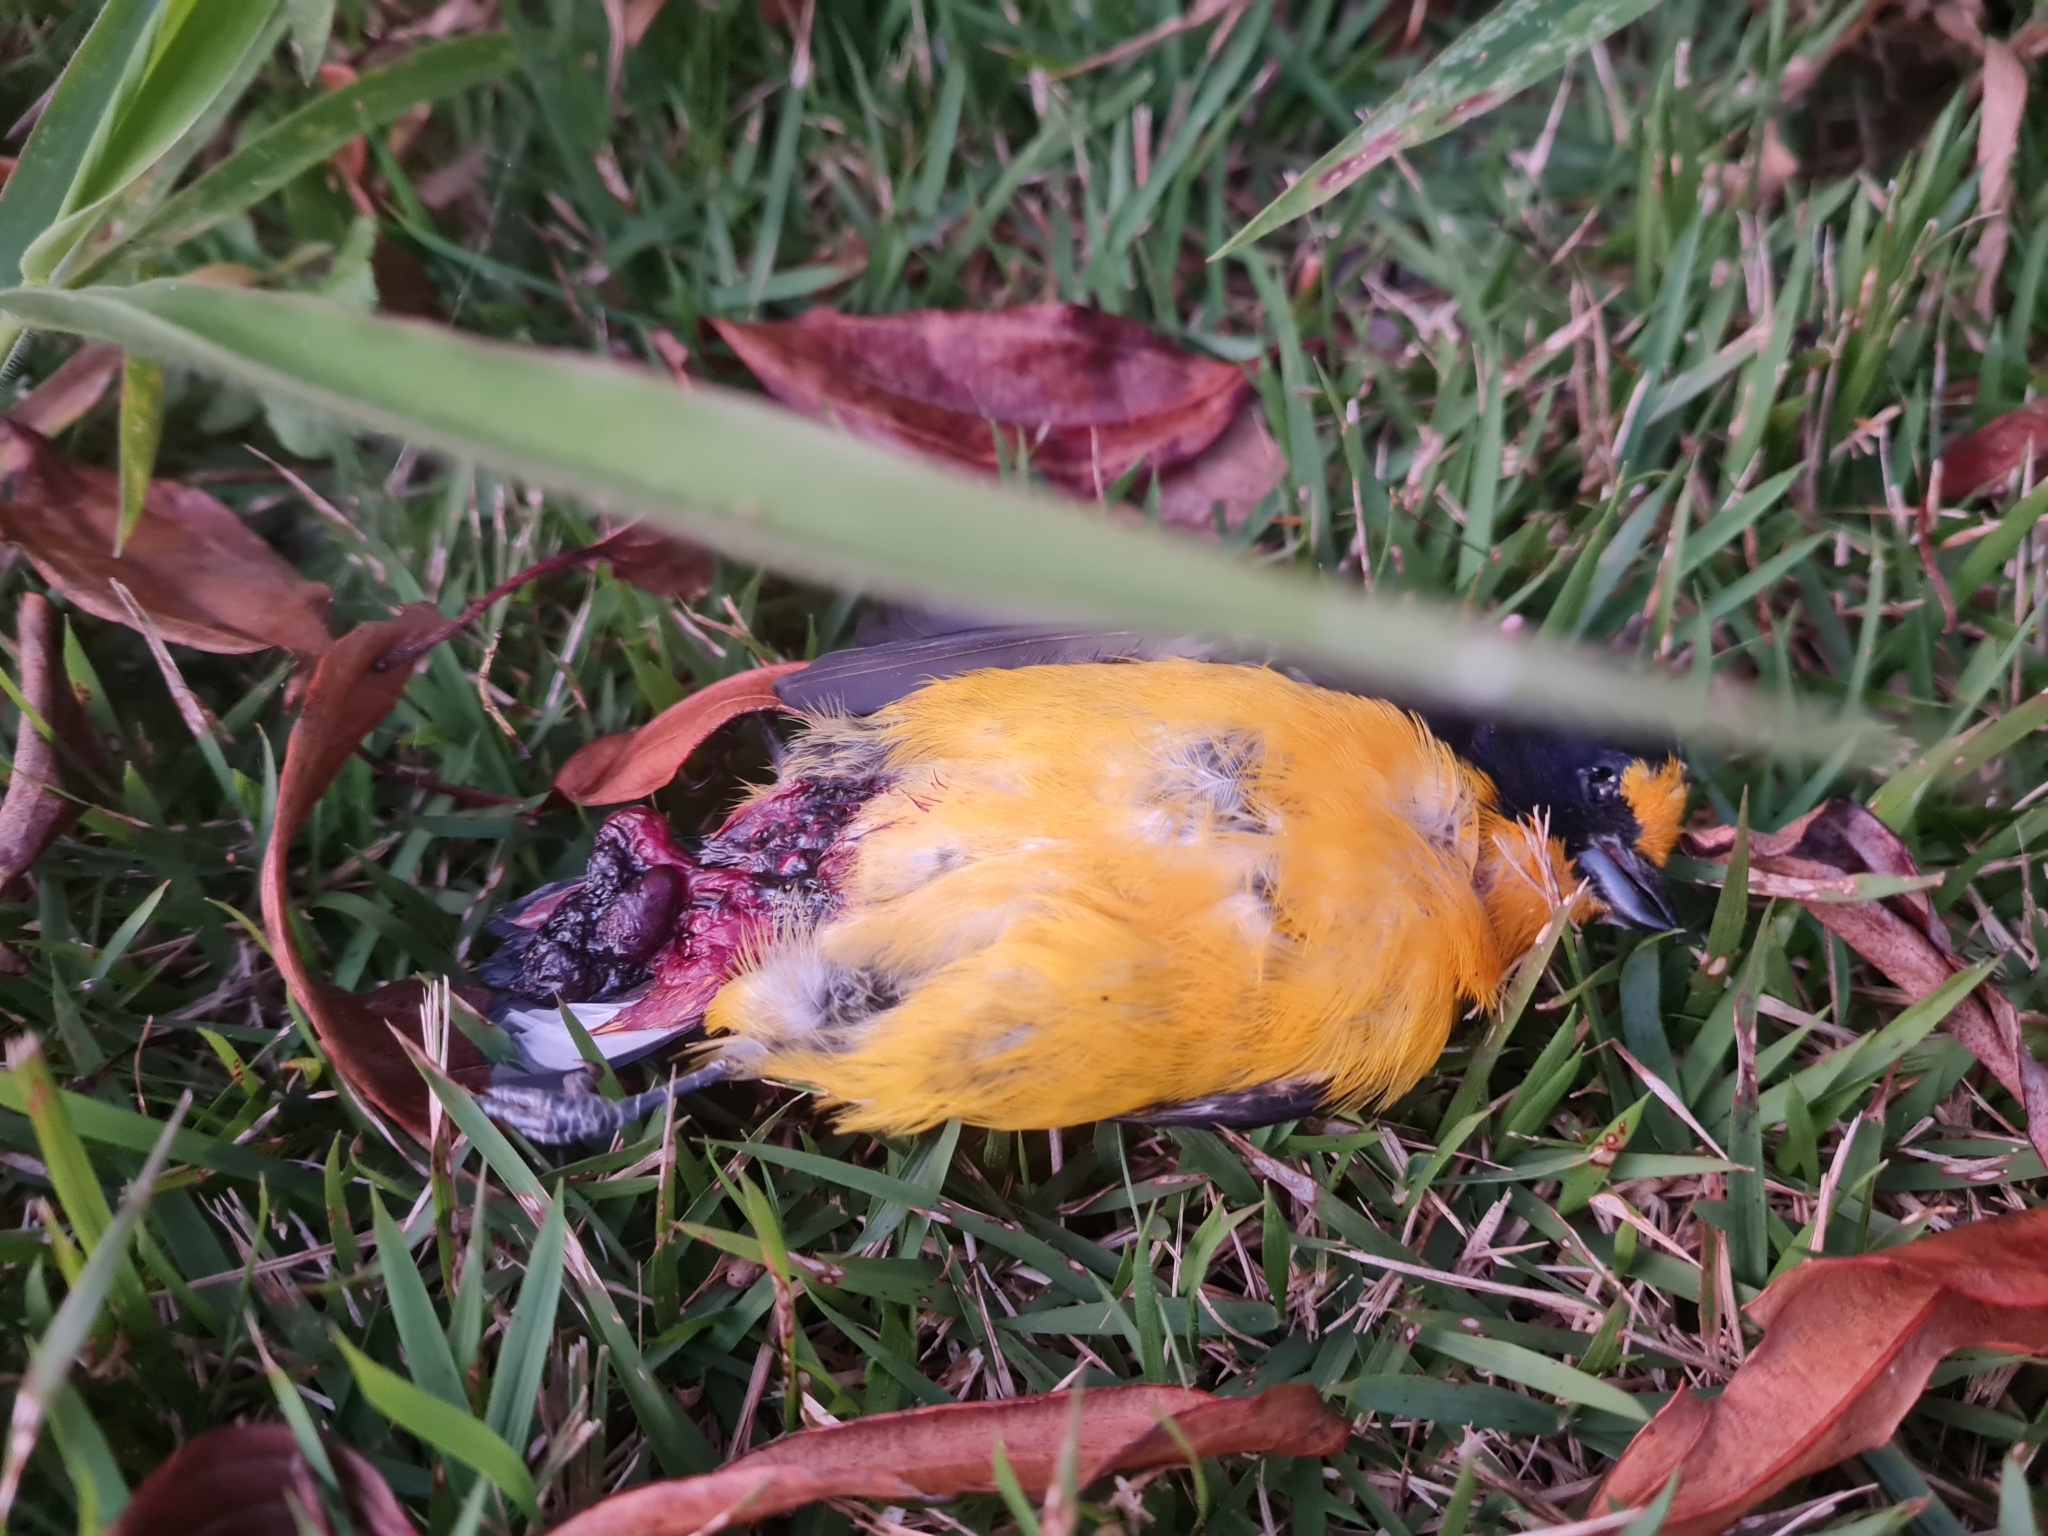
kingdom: Animalia
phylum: Chordata
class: Aves
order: Passeriformes
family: Fringillidae
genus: Euphonia
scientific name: Euphonia violacea
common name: Violaceous euphonia
